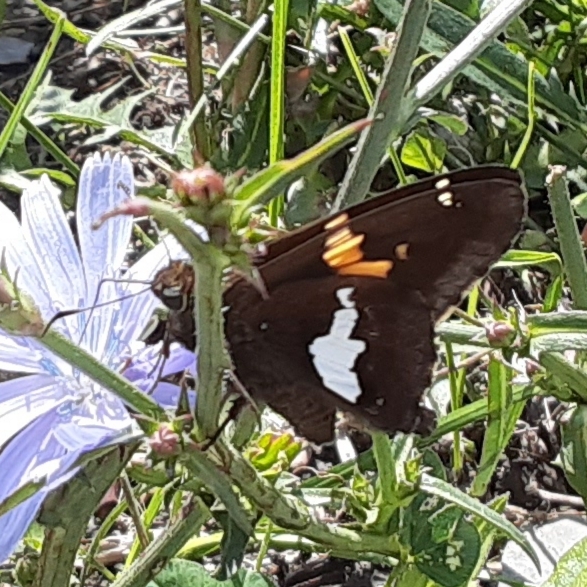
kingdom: Animalia
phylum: Arthropoda
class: Insecta
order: Lepidoptera
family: Hesperiidae
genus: Epargyreus
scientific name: Epargyreus clarus
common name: Silver-spotted skipper
